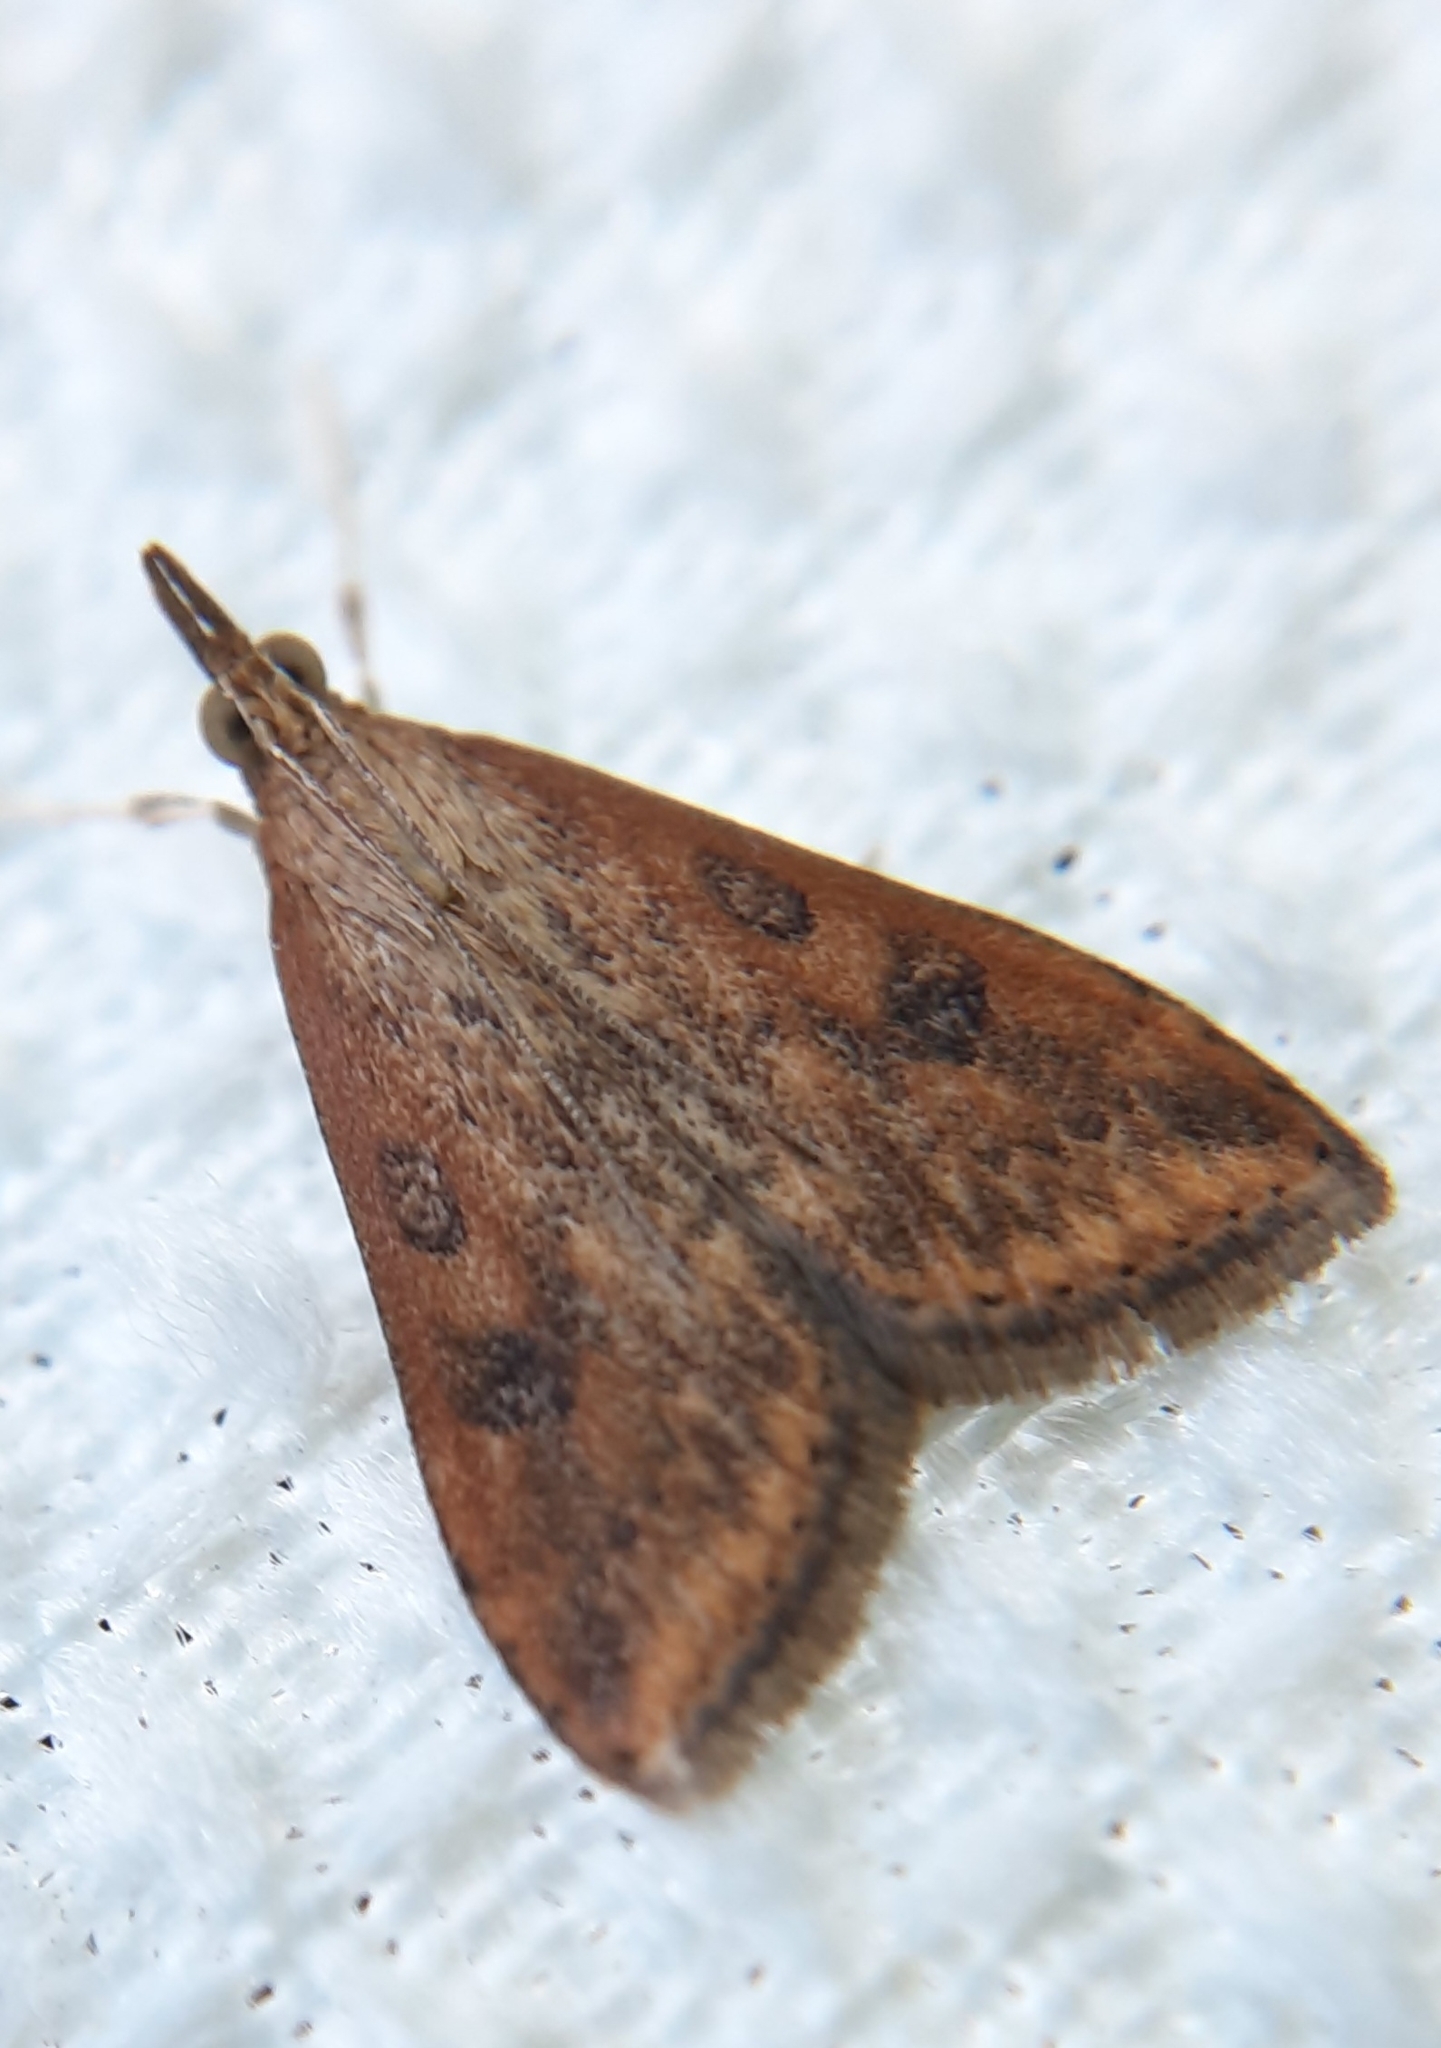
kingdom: Animalia
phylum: Arthropoda
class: Insecta
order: Lepidoptera
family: Crambidae
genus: Udea
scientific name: Udea ferrugalis
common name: Rusty dot
